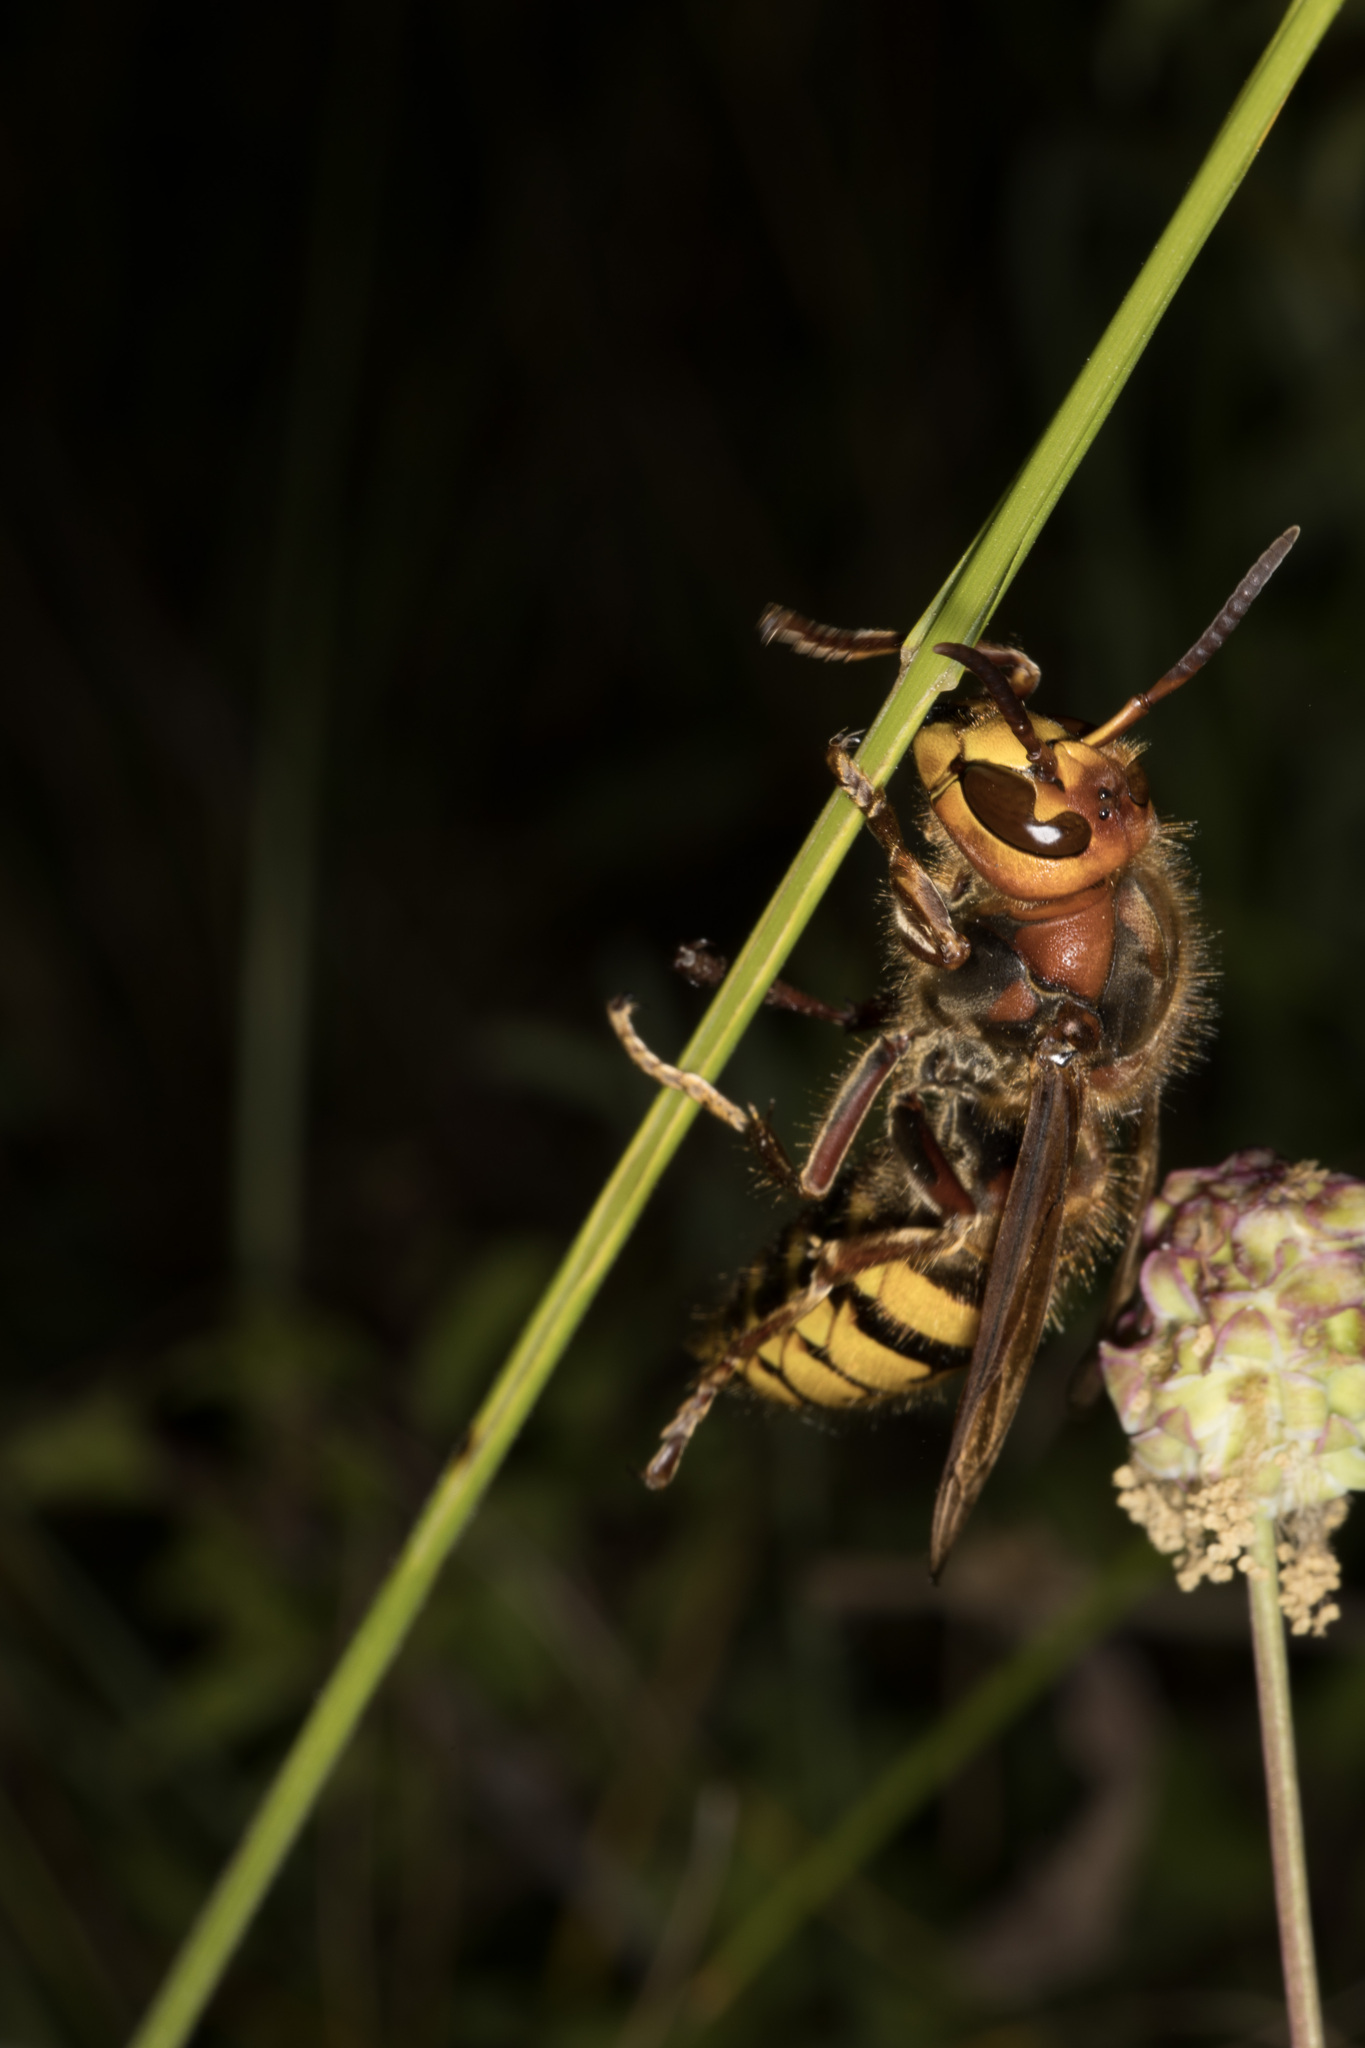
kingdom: Animalia
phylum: Arthropoda
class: Insecta
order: Hymenoptera
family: Vespidae
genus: Vespa
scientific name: Vespa crabro
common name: Hornet
